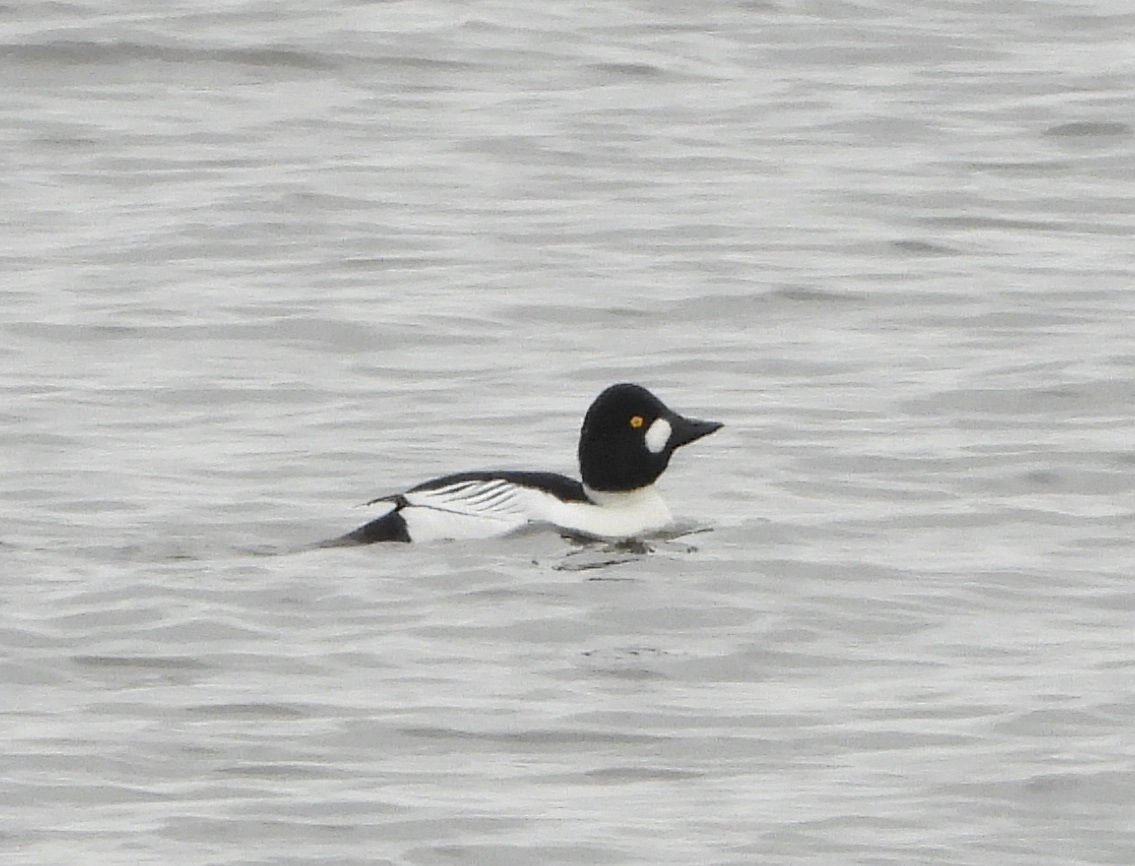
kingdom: Animalia
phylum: Chordata
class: Aves
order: Anseriformes
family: Anatidae
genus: Bucephala
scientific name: Bucephala clangula
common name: Common goldeneye
